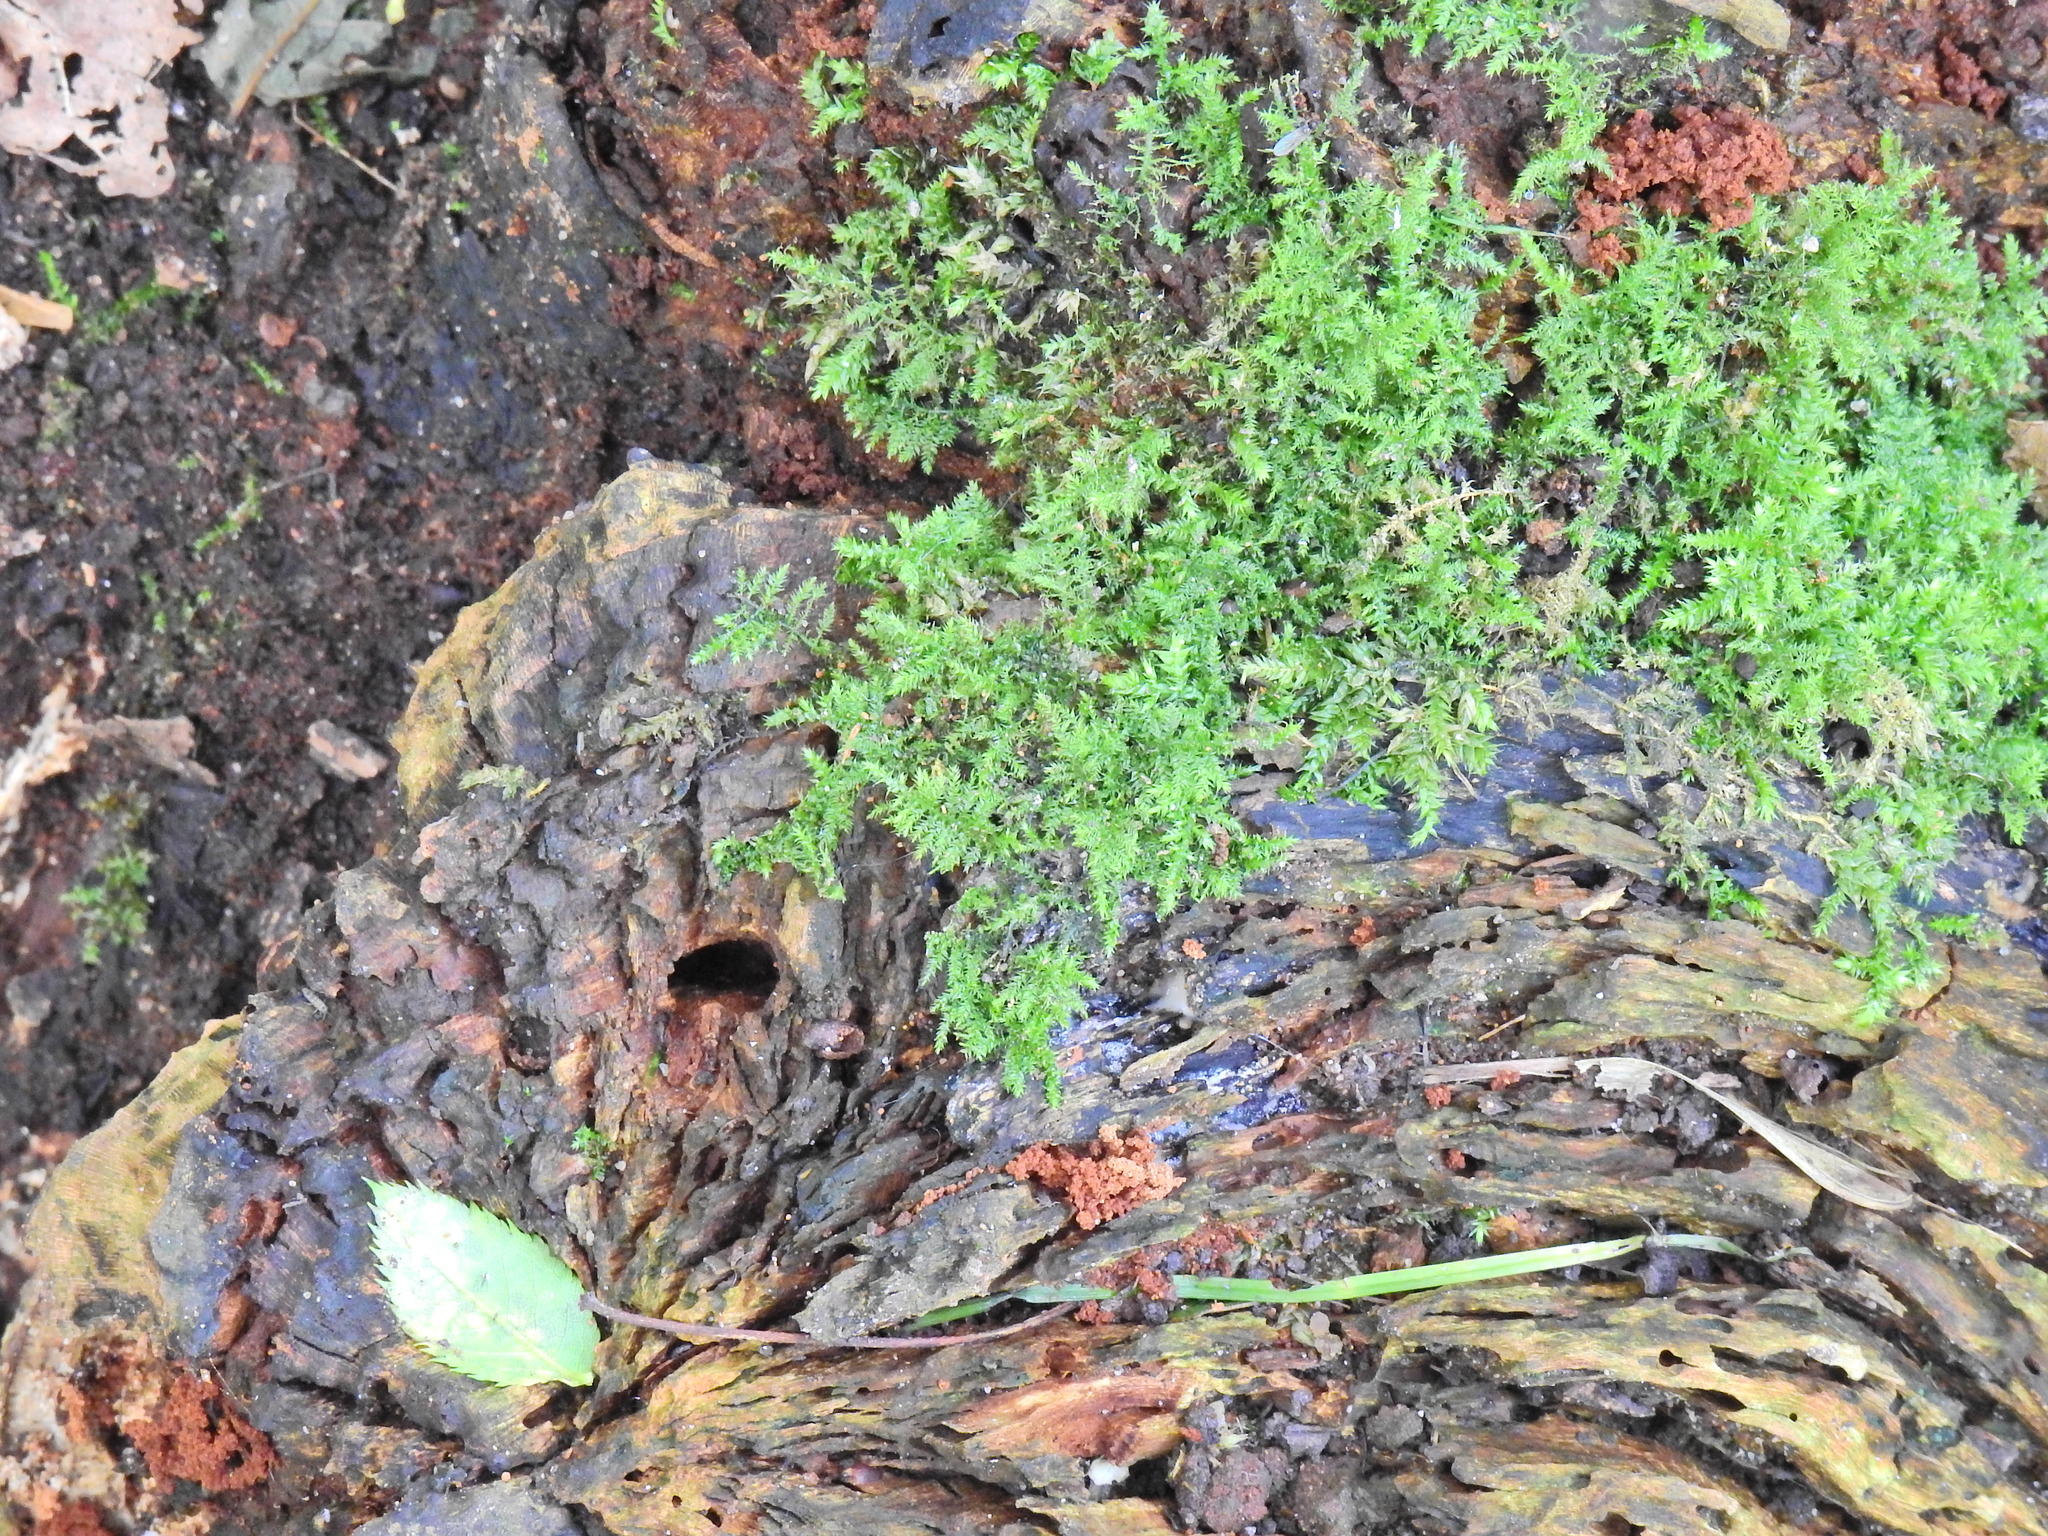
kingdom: Plantae
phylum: Bryophyta
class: Bryopsida
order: Hypnales
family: Brachytheciaceae
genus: Kindbergia
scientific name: Kindbergia praelonga
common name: Slender beaked moss
